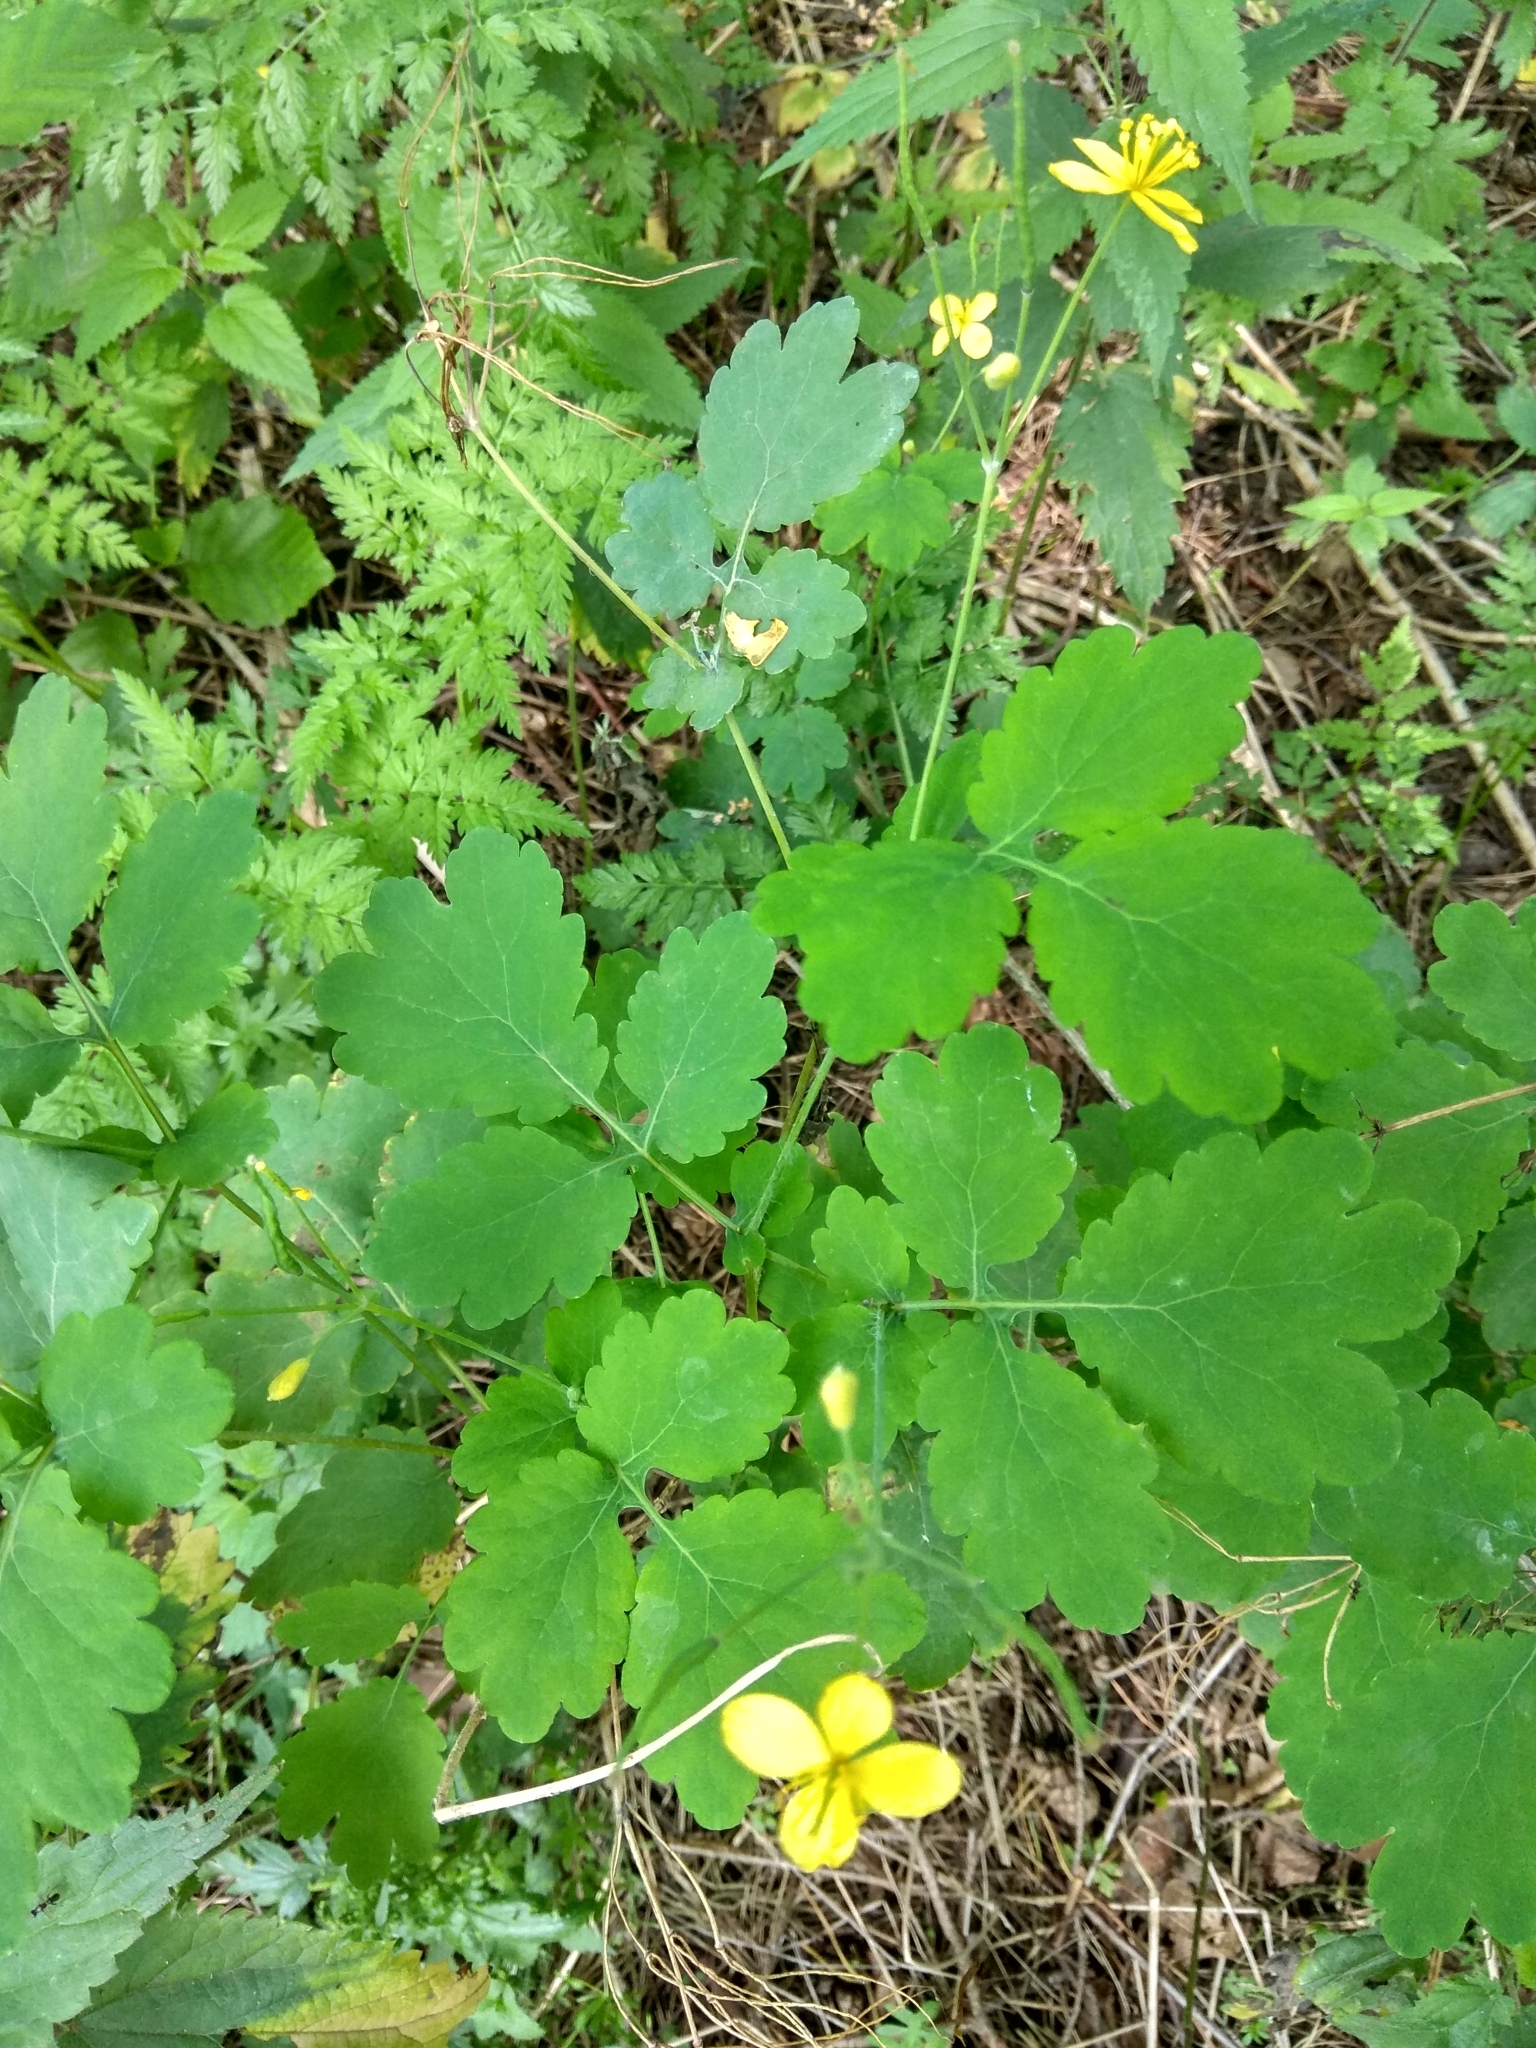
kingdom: Plantae
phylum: Tracheophyta
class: Magnoliopsida
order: Ranunculales
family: Papaveraceae
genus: Chelidonium
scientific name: Chelidonium majus
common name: Greater celandine
